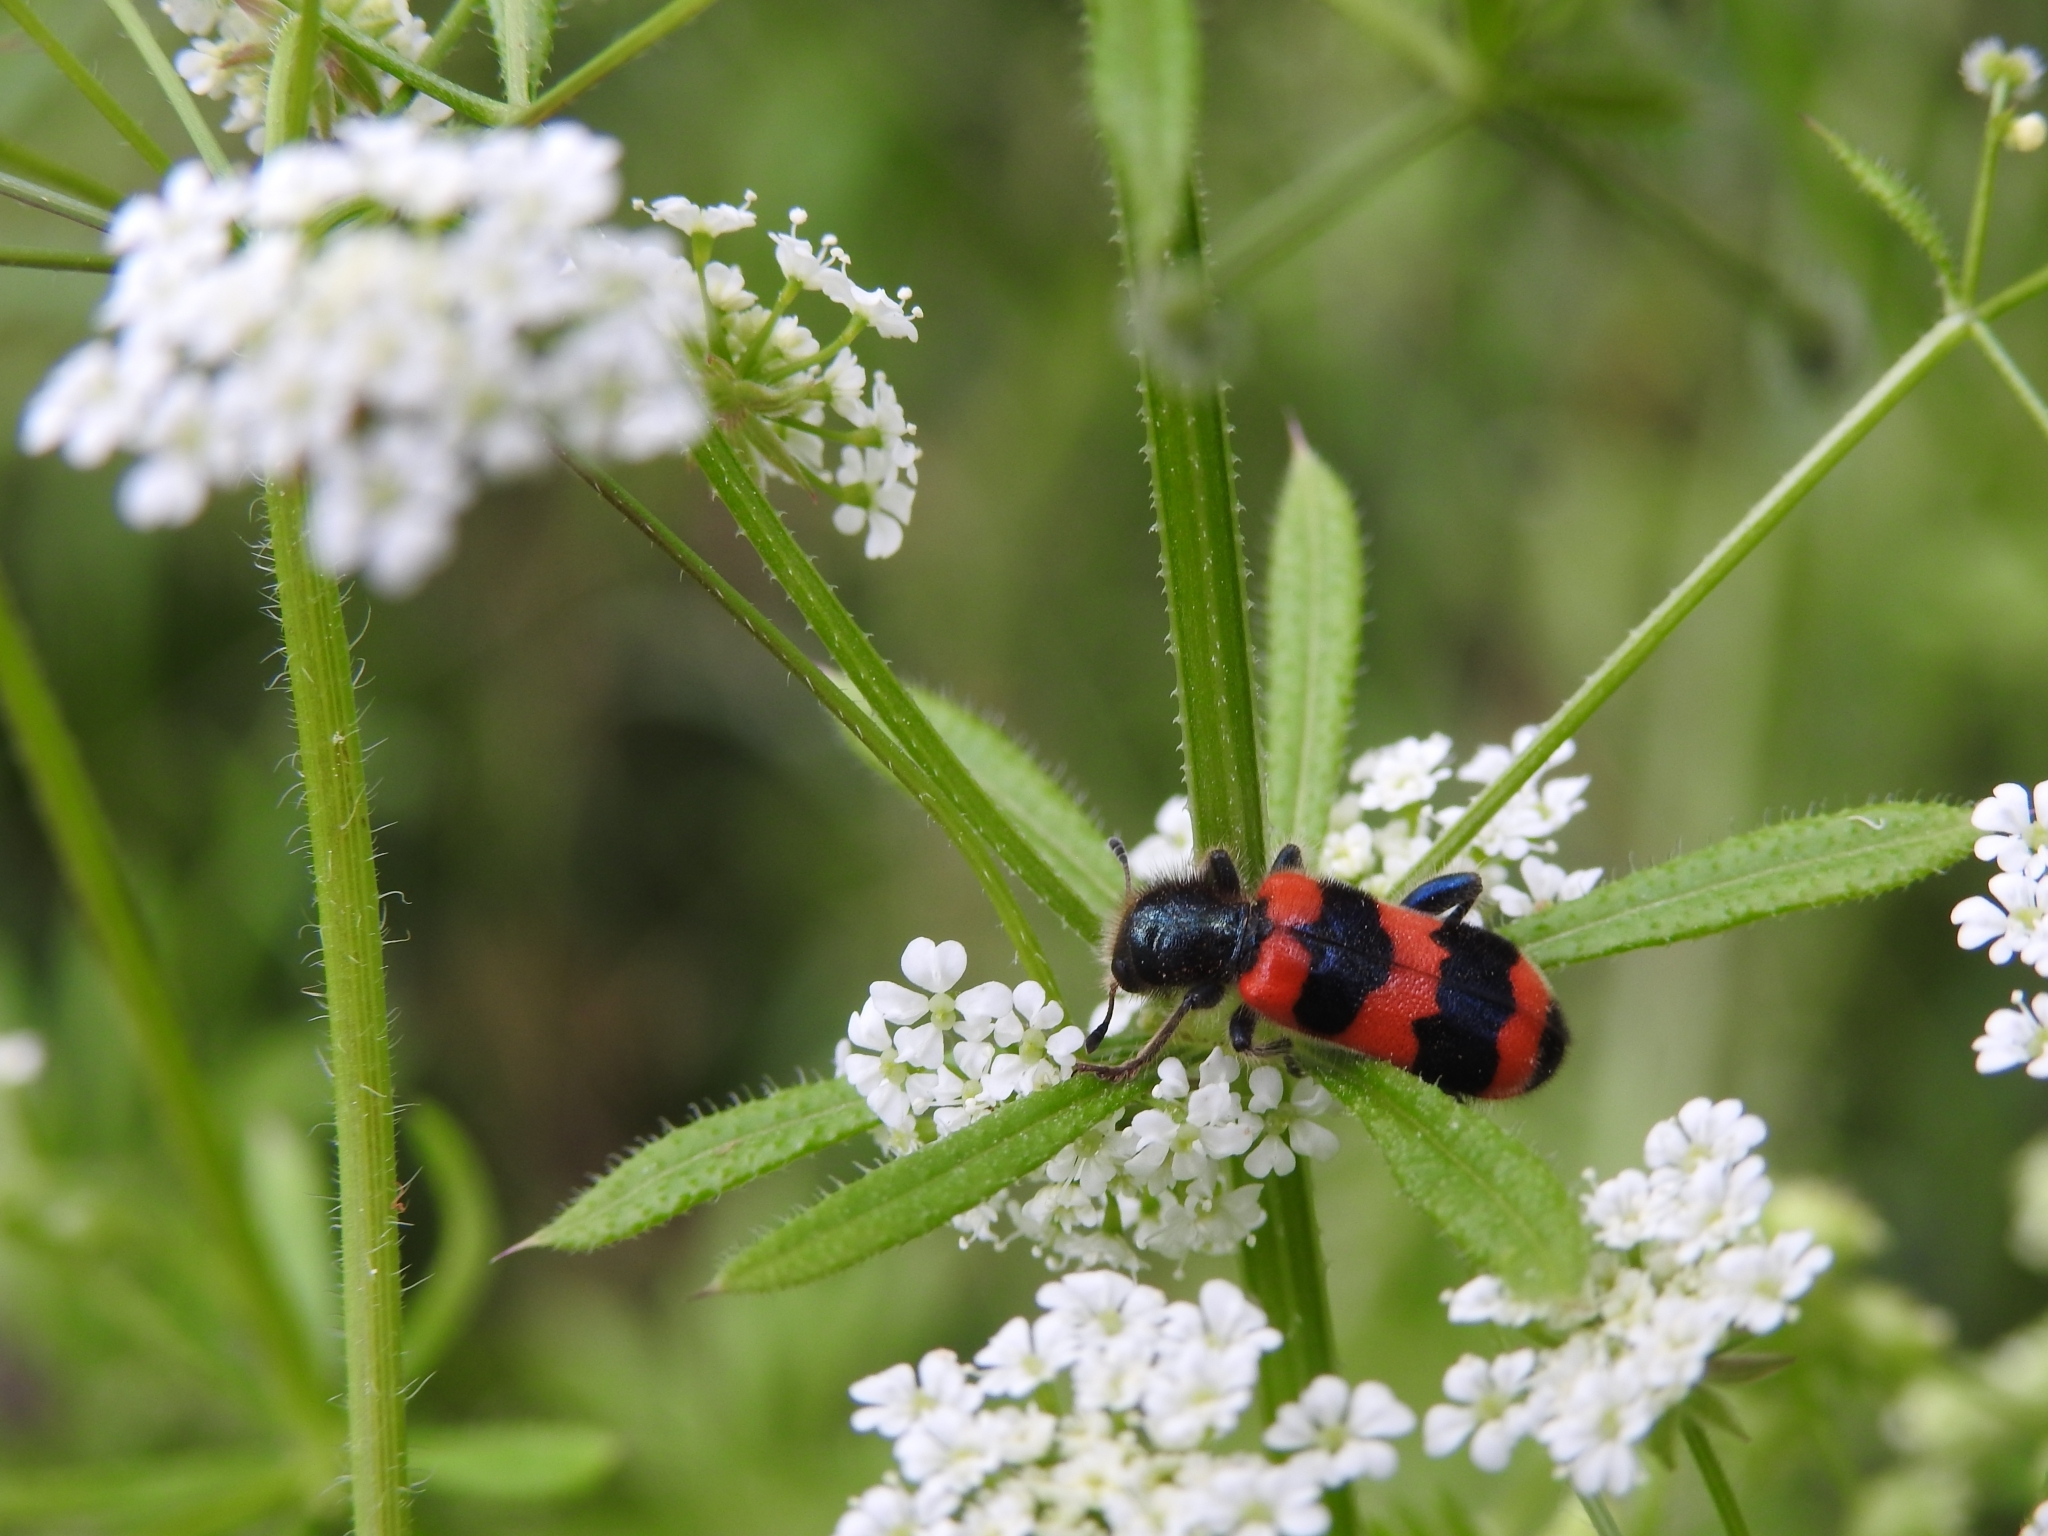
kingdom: Animalia
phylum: Arthropoda
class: Insecta
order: Coleoptera
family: Cleridae
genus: Trichodes
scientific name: Trichodes apiarius
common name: Bee-eating beetle
